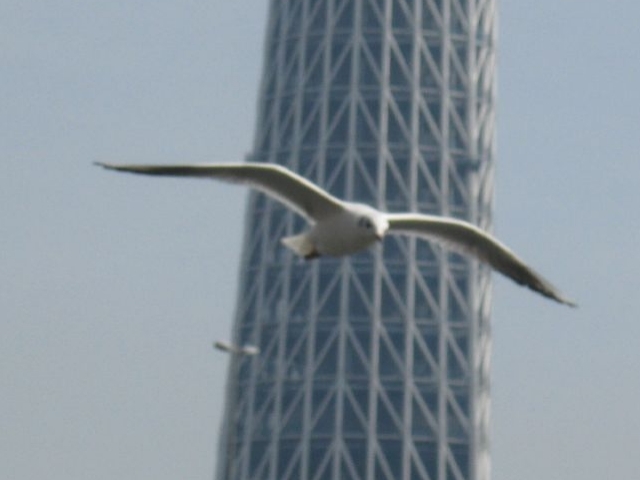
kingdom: Animalia
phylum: Chordata
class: Aves
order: Charadriiformes
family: Laridae
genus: Chroicocephalus
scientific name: Chroicocephalus ridibundus
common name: Black-headed gull
